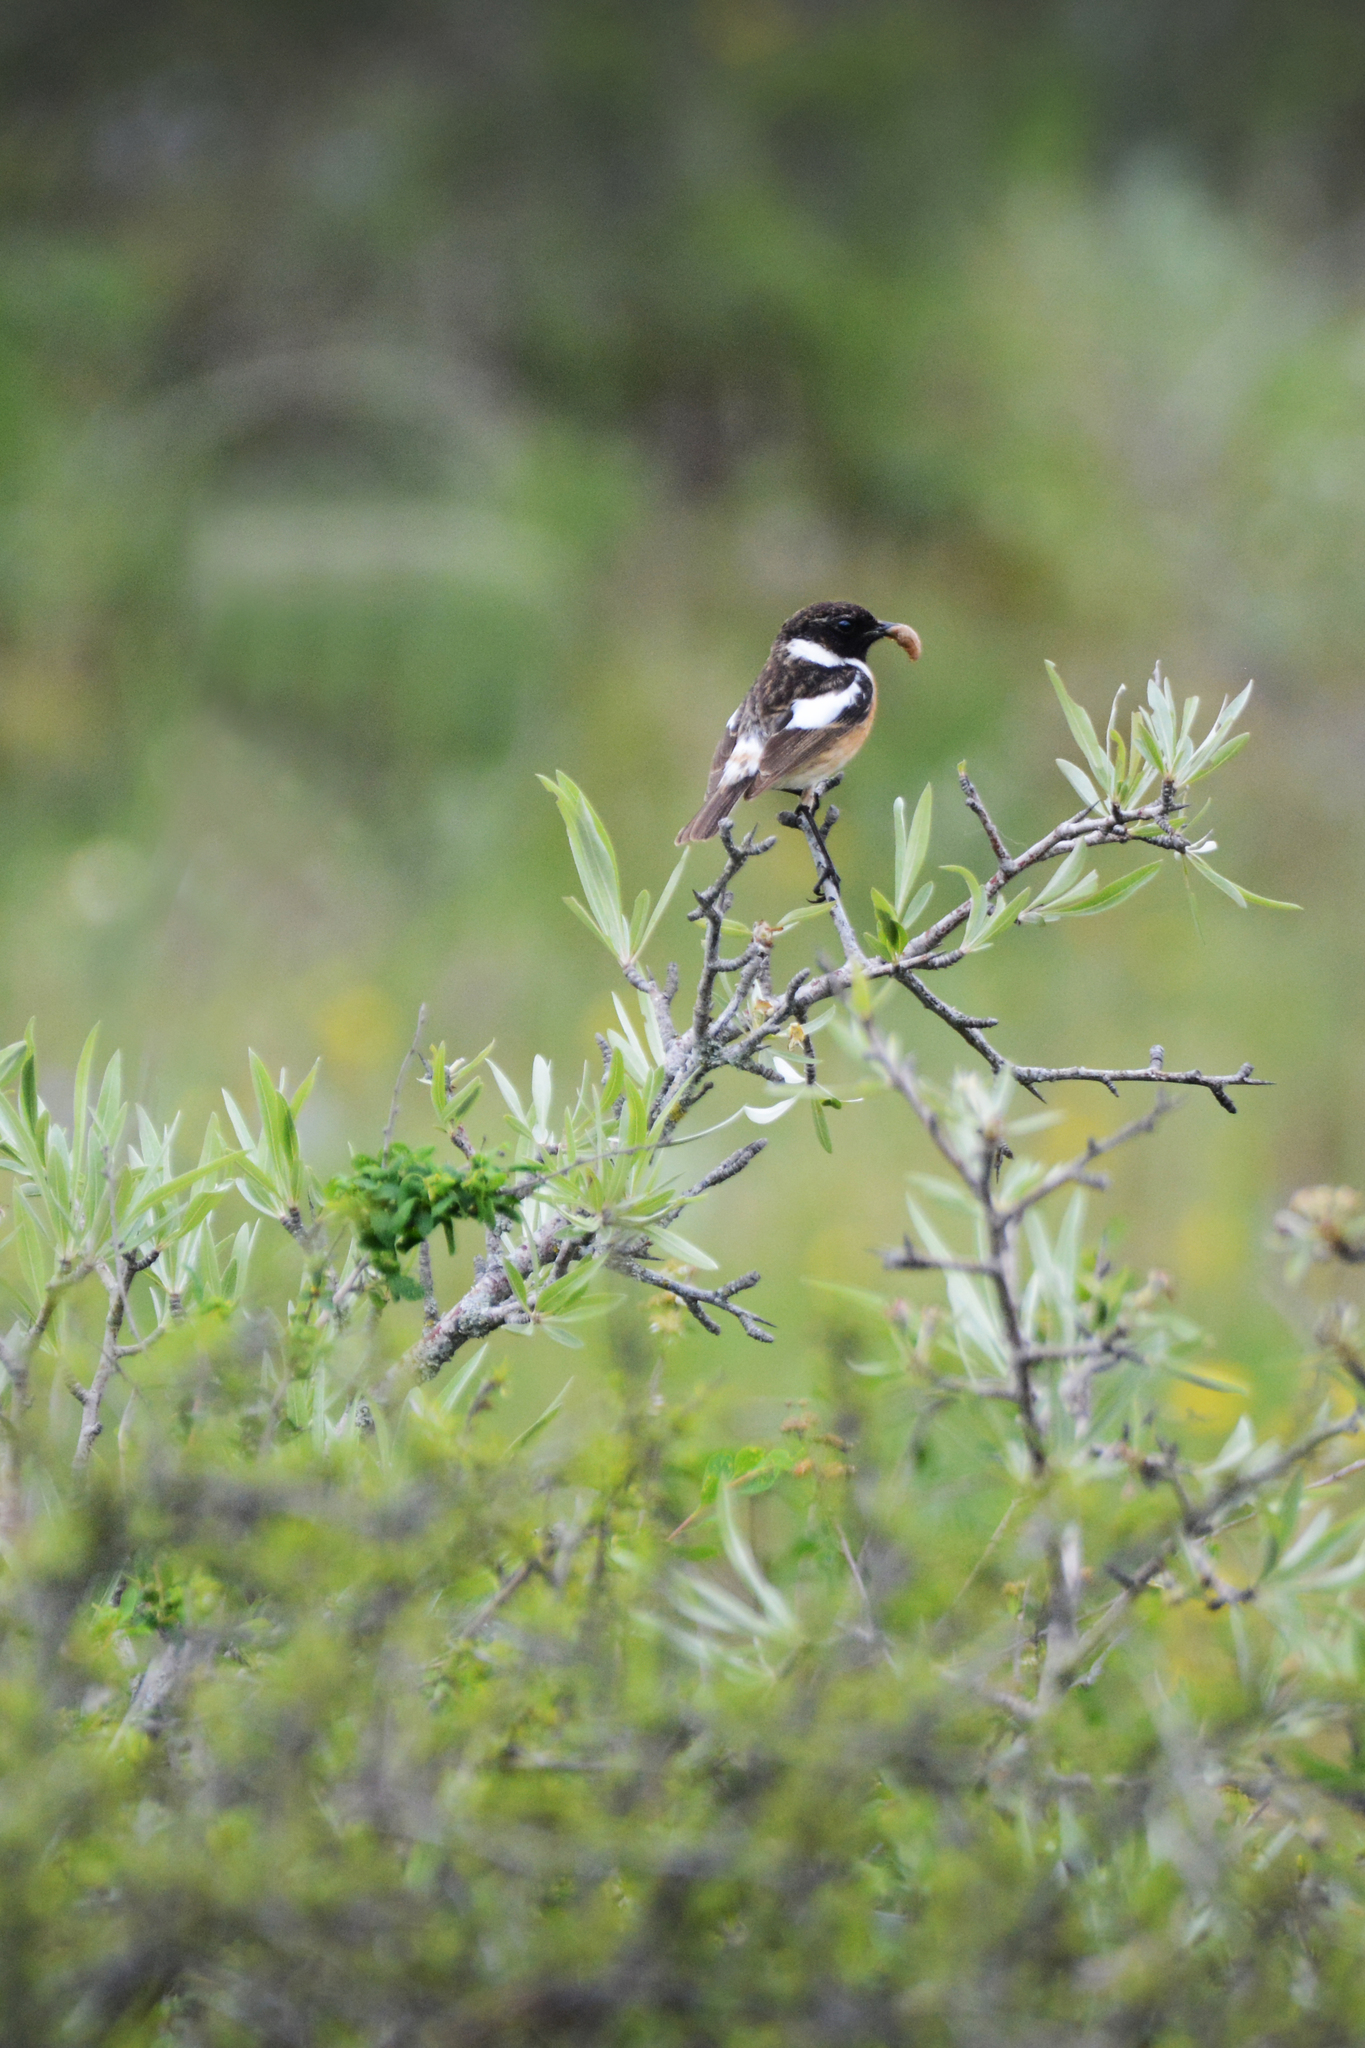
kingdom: Animalia
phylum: Chordata
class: Aves
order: Passeriformes
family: Muscicapidae
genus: Saxicola
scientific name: Saxicola rubicola
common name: European stonechat
